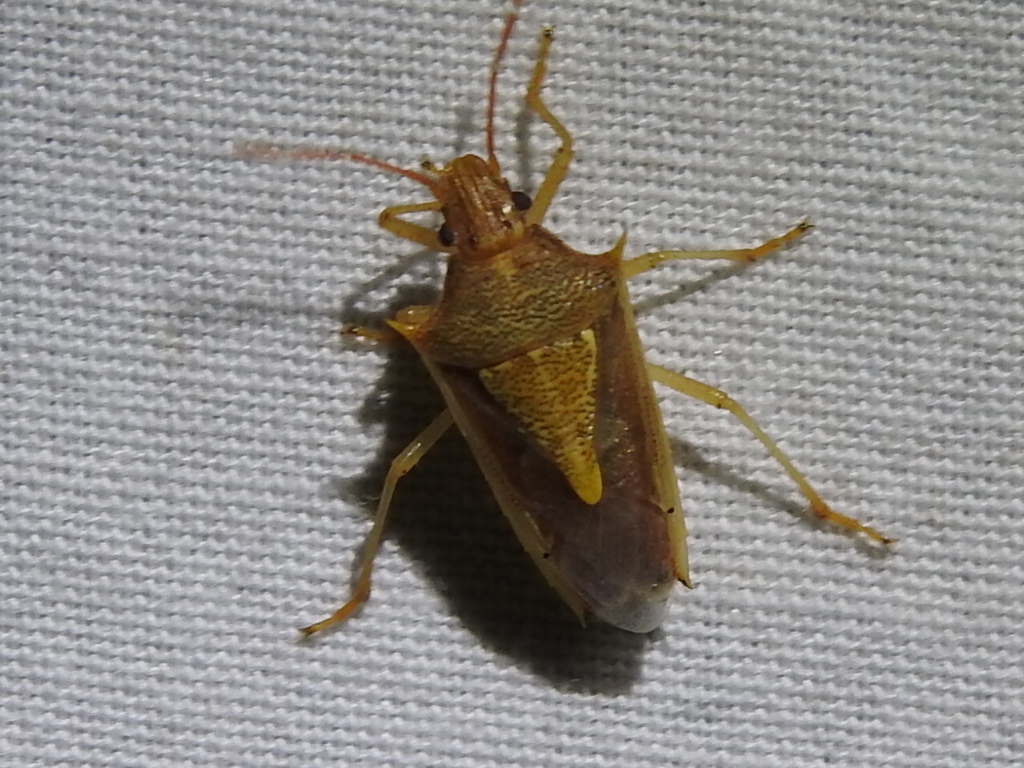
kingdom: Animalia
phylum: Arthropoda
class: Insecta
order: Hemiptera
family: Pentatomidae
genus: Oebalus
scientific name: Oebalus pugnax
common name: Rice stink bug
